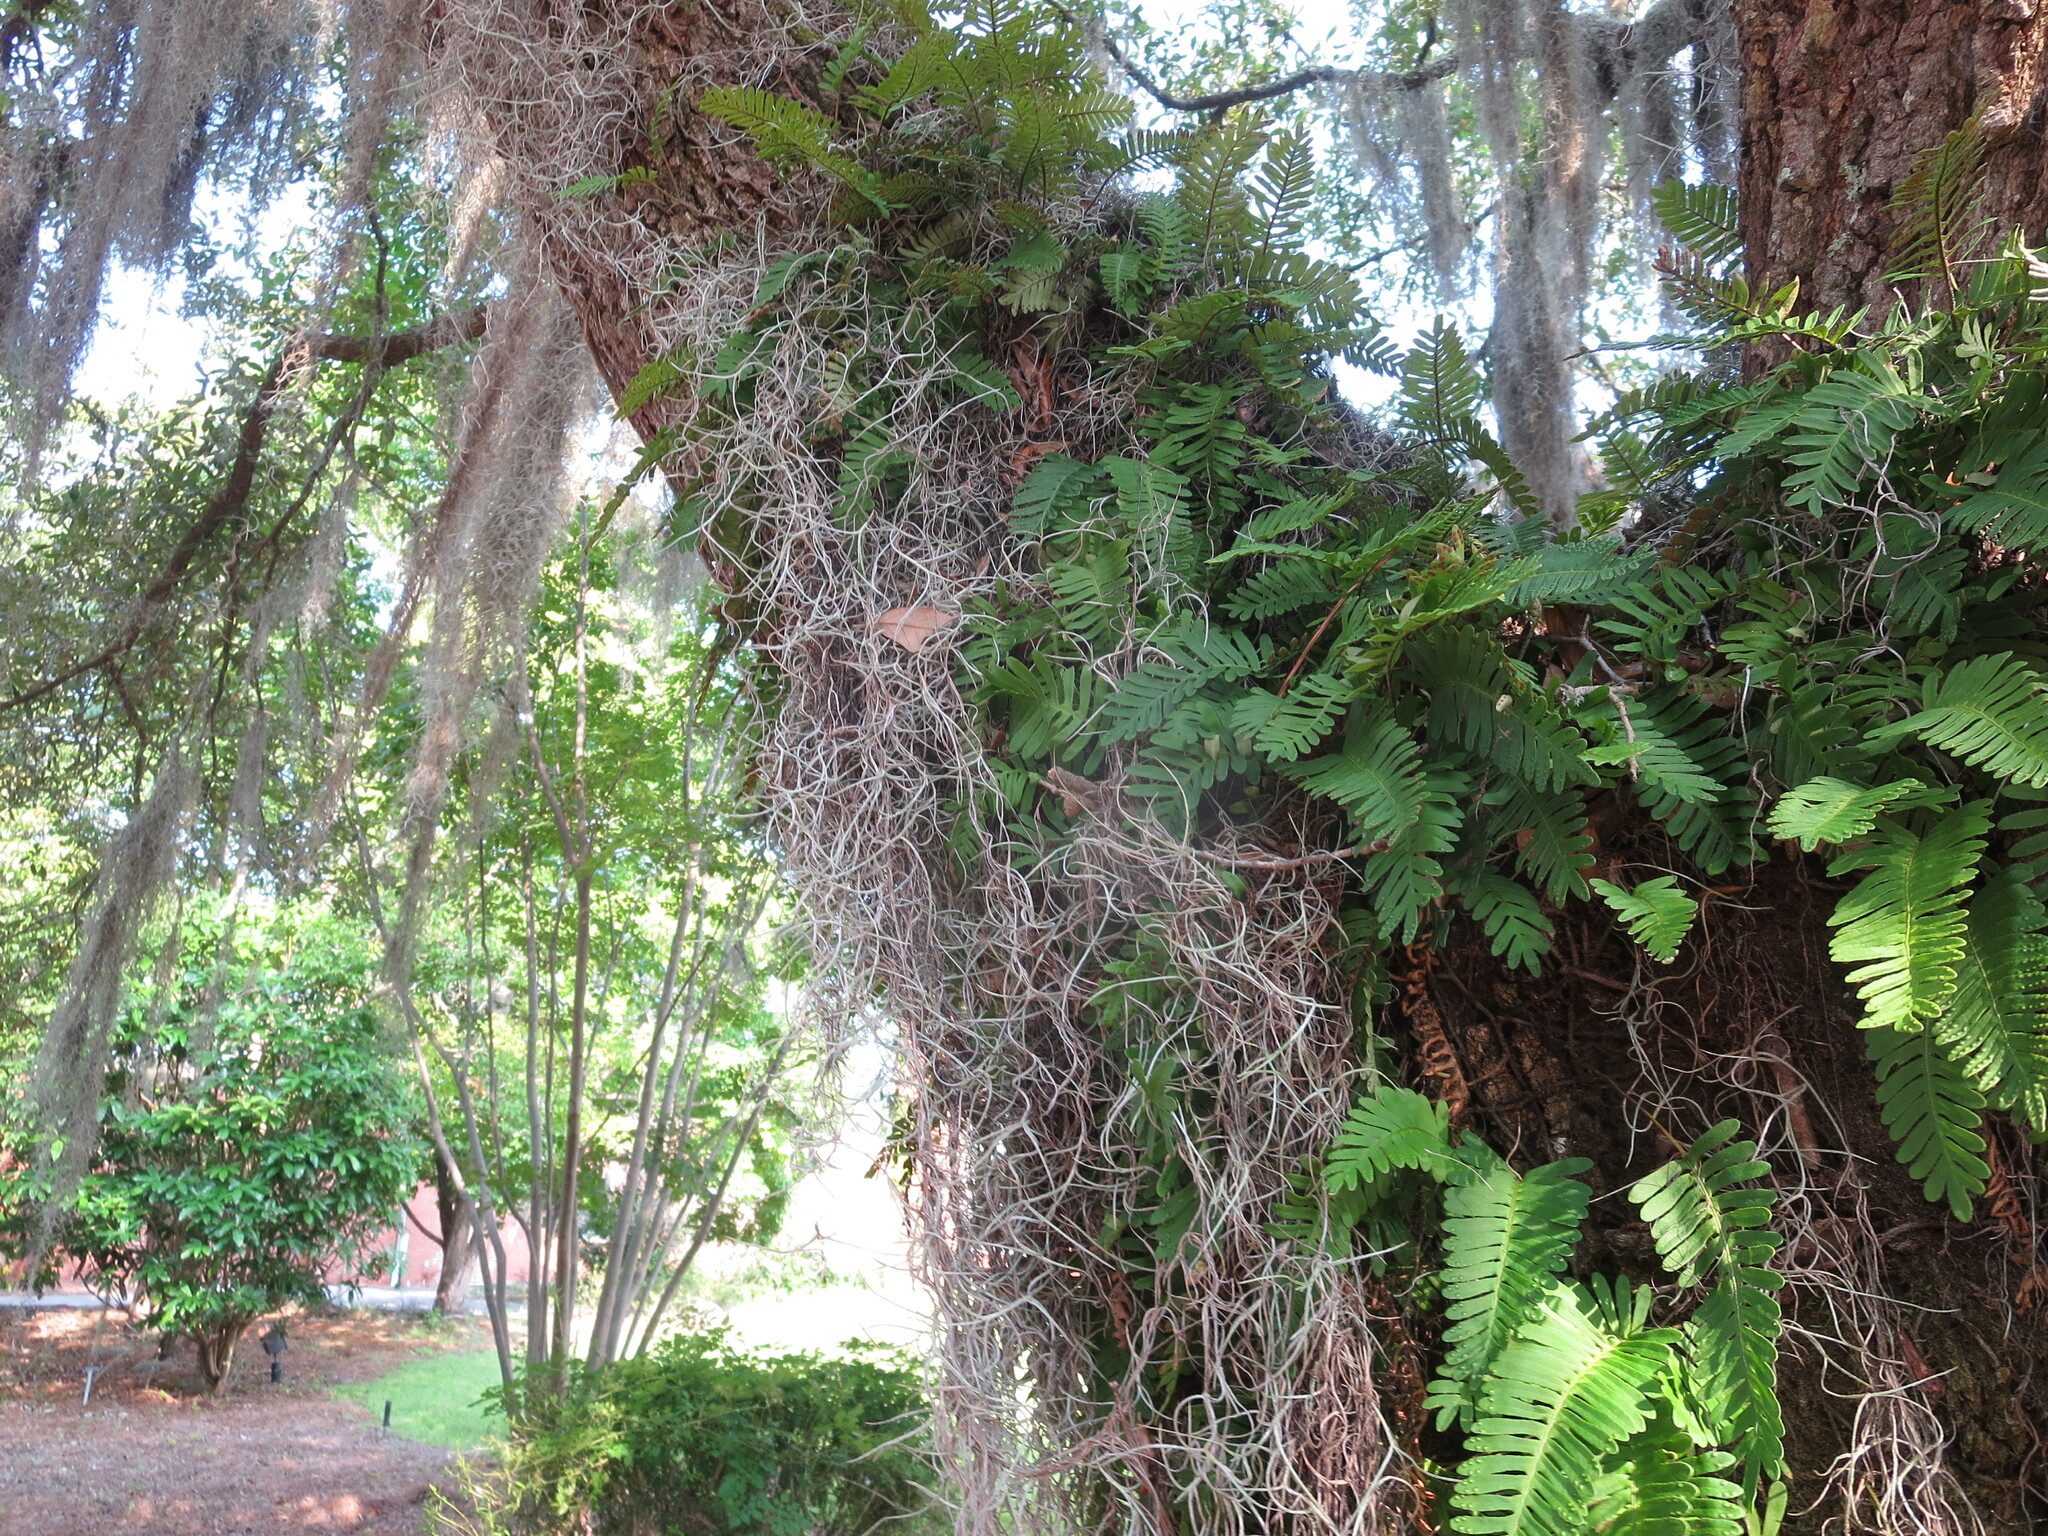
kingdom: Plantae
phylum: Tracheophyta
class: Liliopsida
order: Poales
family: Bromeliaceae
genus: Tillandsia
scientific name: Tillandsia usneoides
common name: Spanish moss
